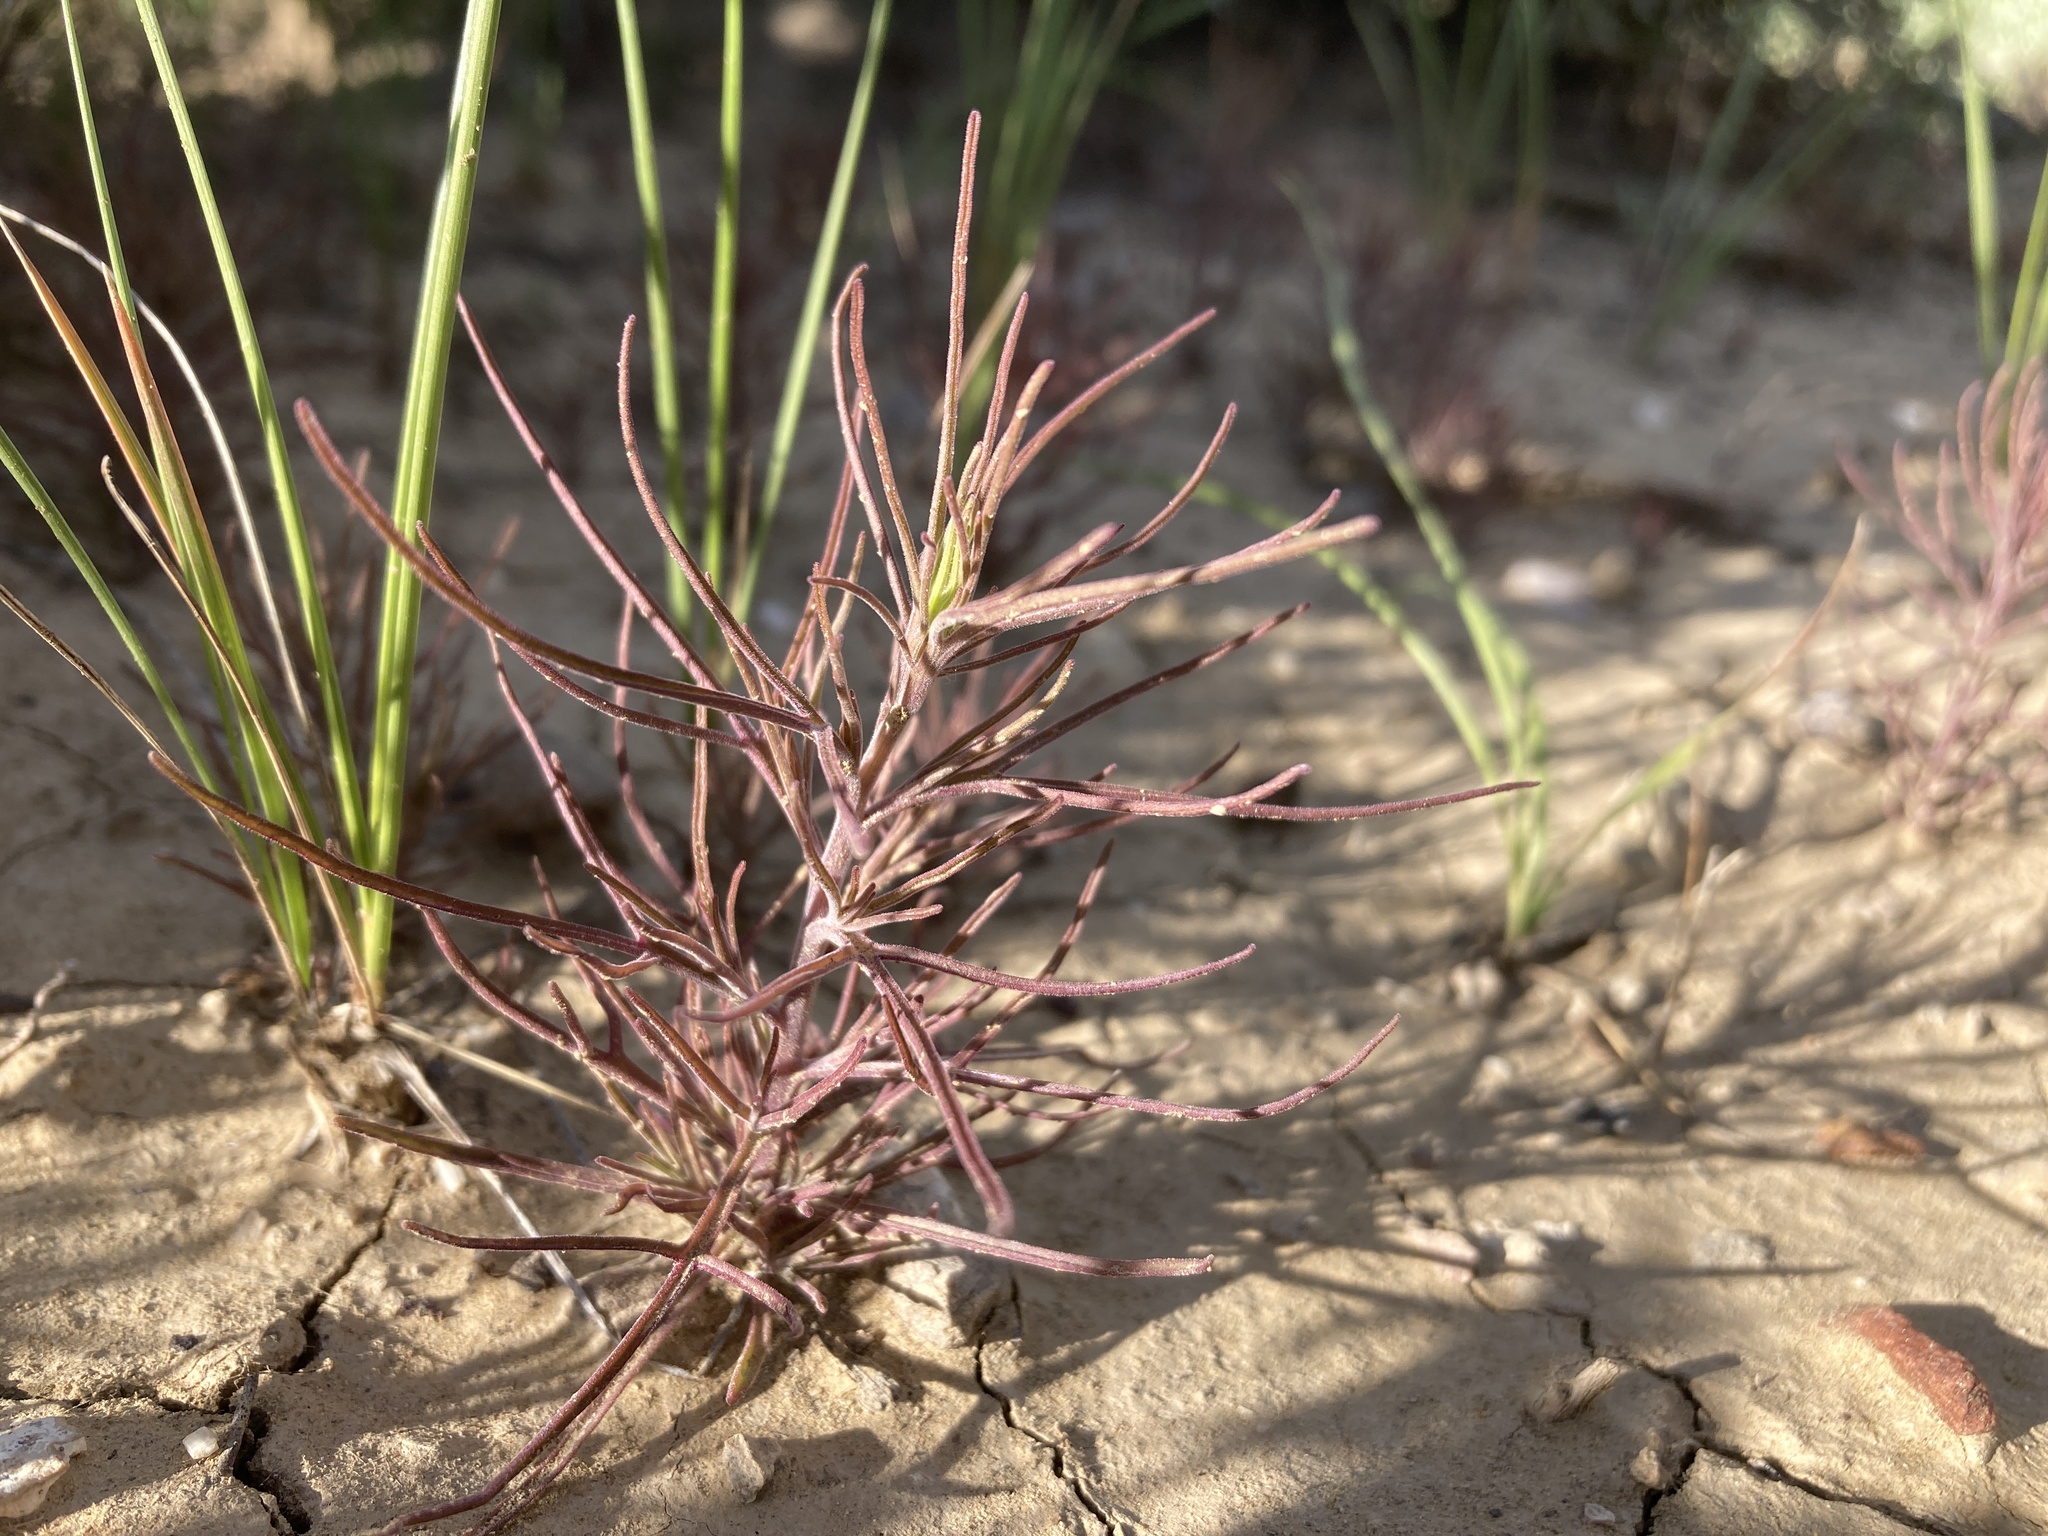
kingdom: Plantae
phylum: Tracheophyta
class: Magnoliopsida
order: Lamiales
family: Orobanchaceae
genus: Cordylanthus
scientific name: Cordylanthus ramosus
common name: Much-branched bird's-beak
